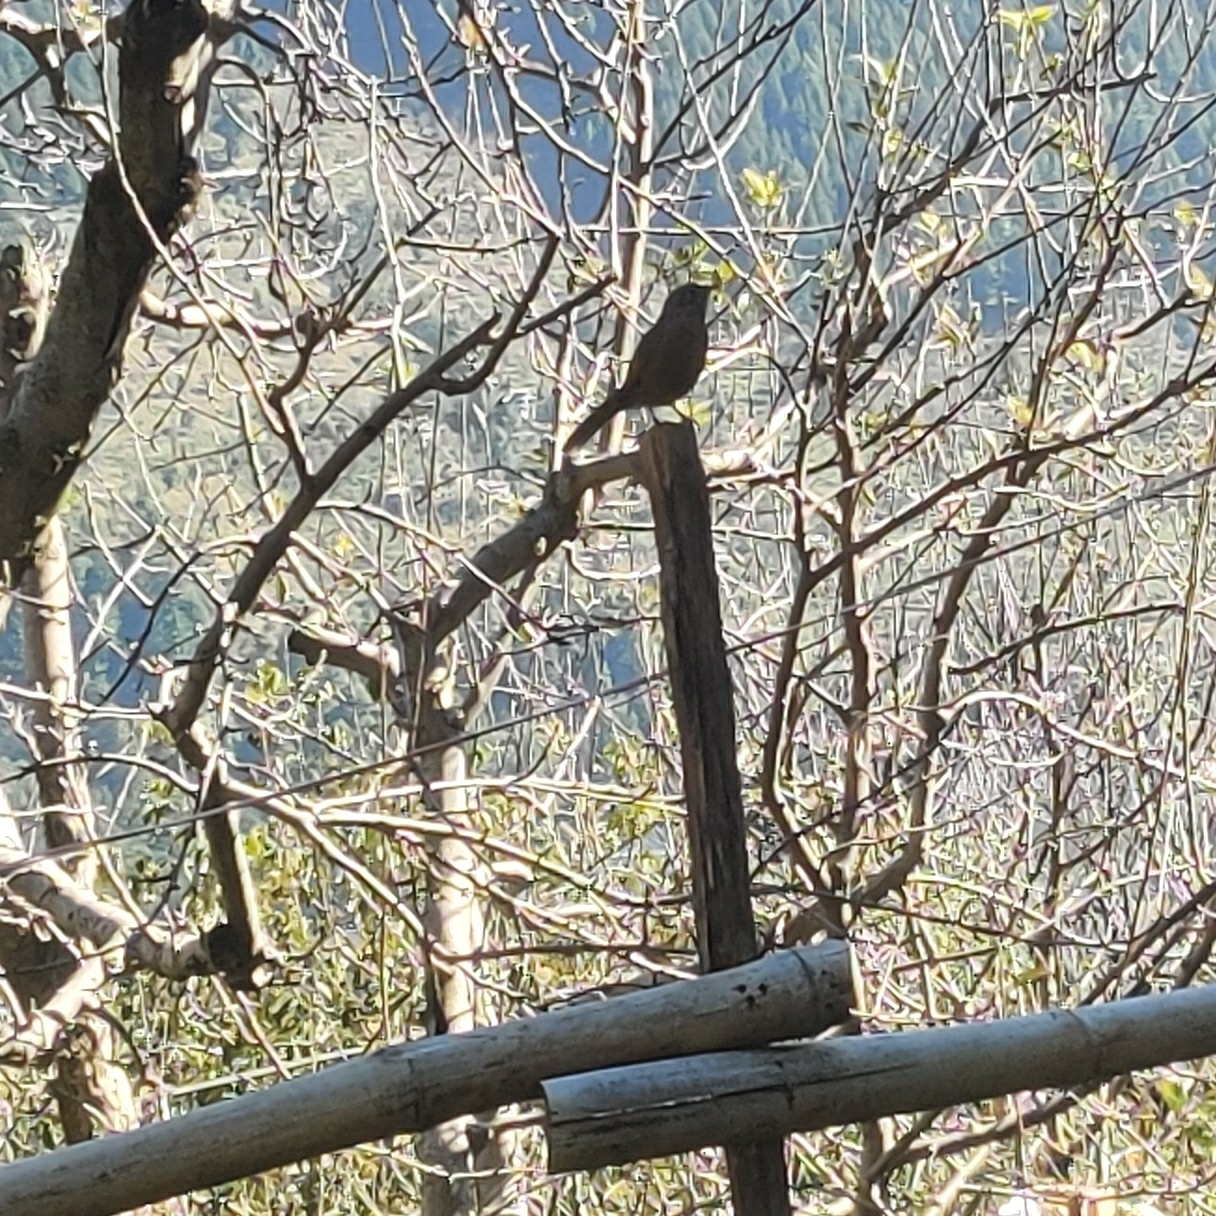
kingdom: Animalia
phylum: Chordata
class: Aves
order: Passeriformes
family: Leiothrichidae
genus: Trochalopteron
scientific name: Trochalopteron lineatum
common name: Streaked laughingthrush
